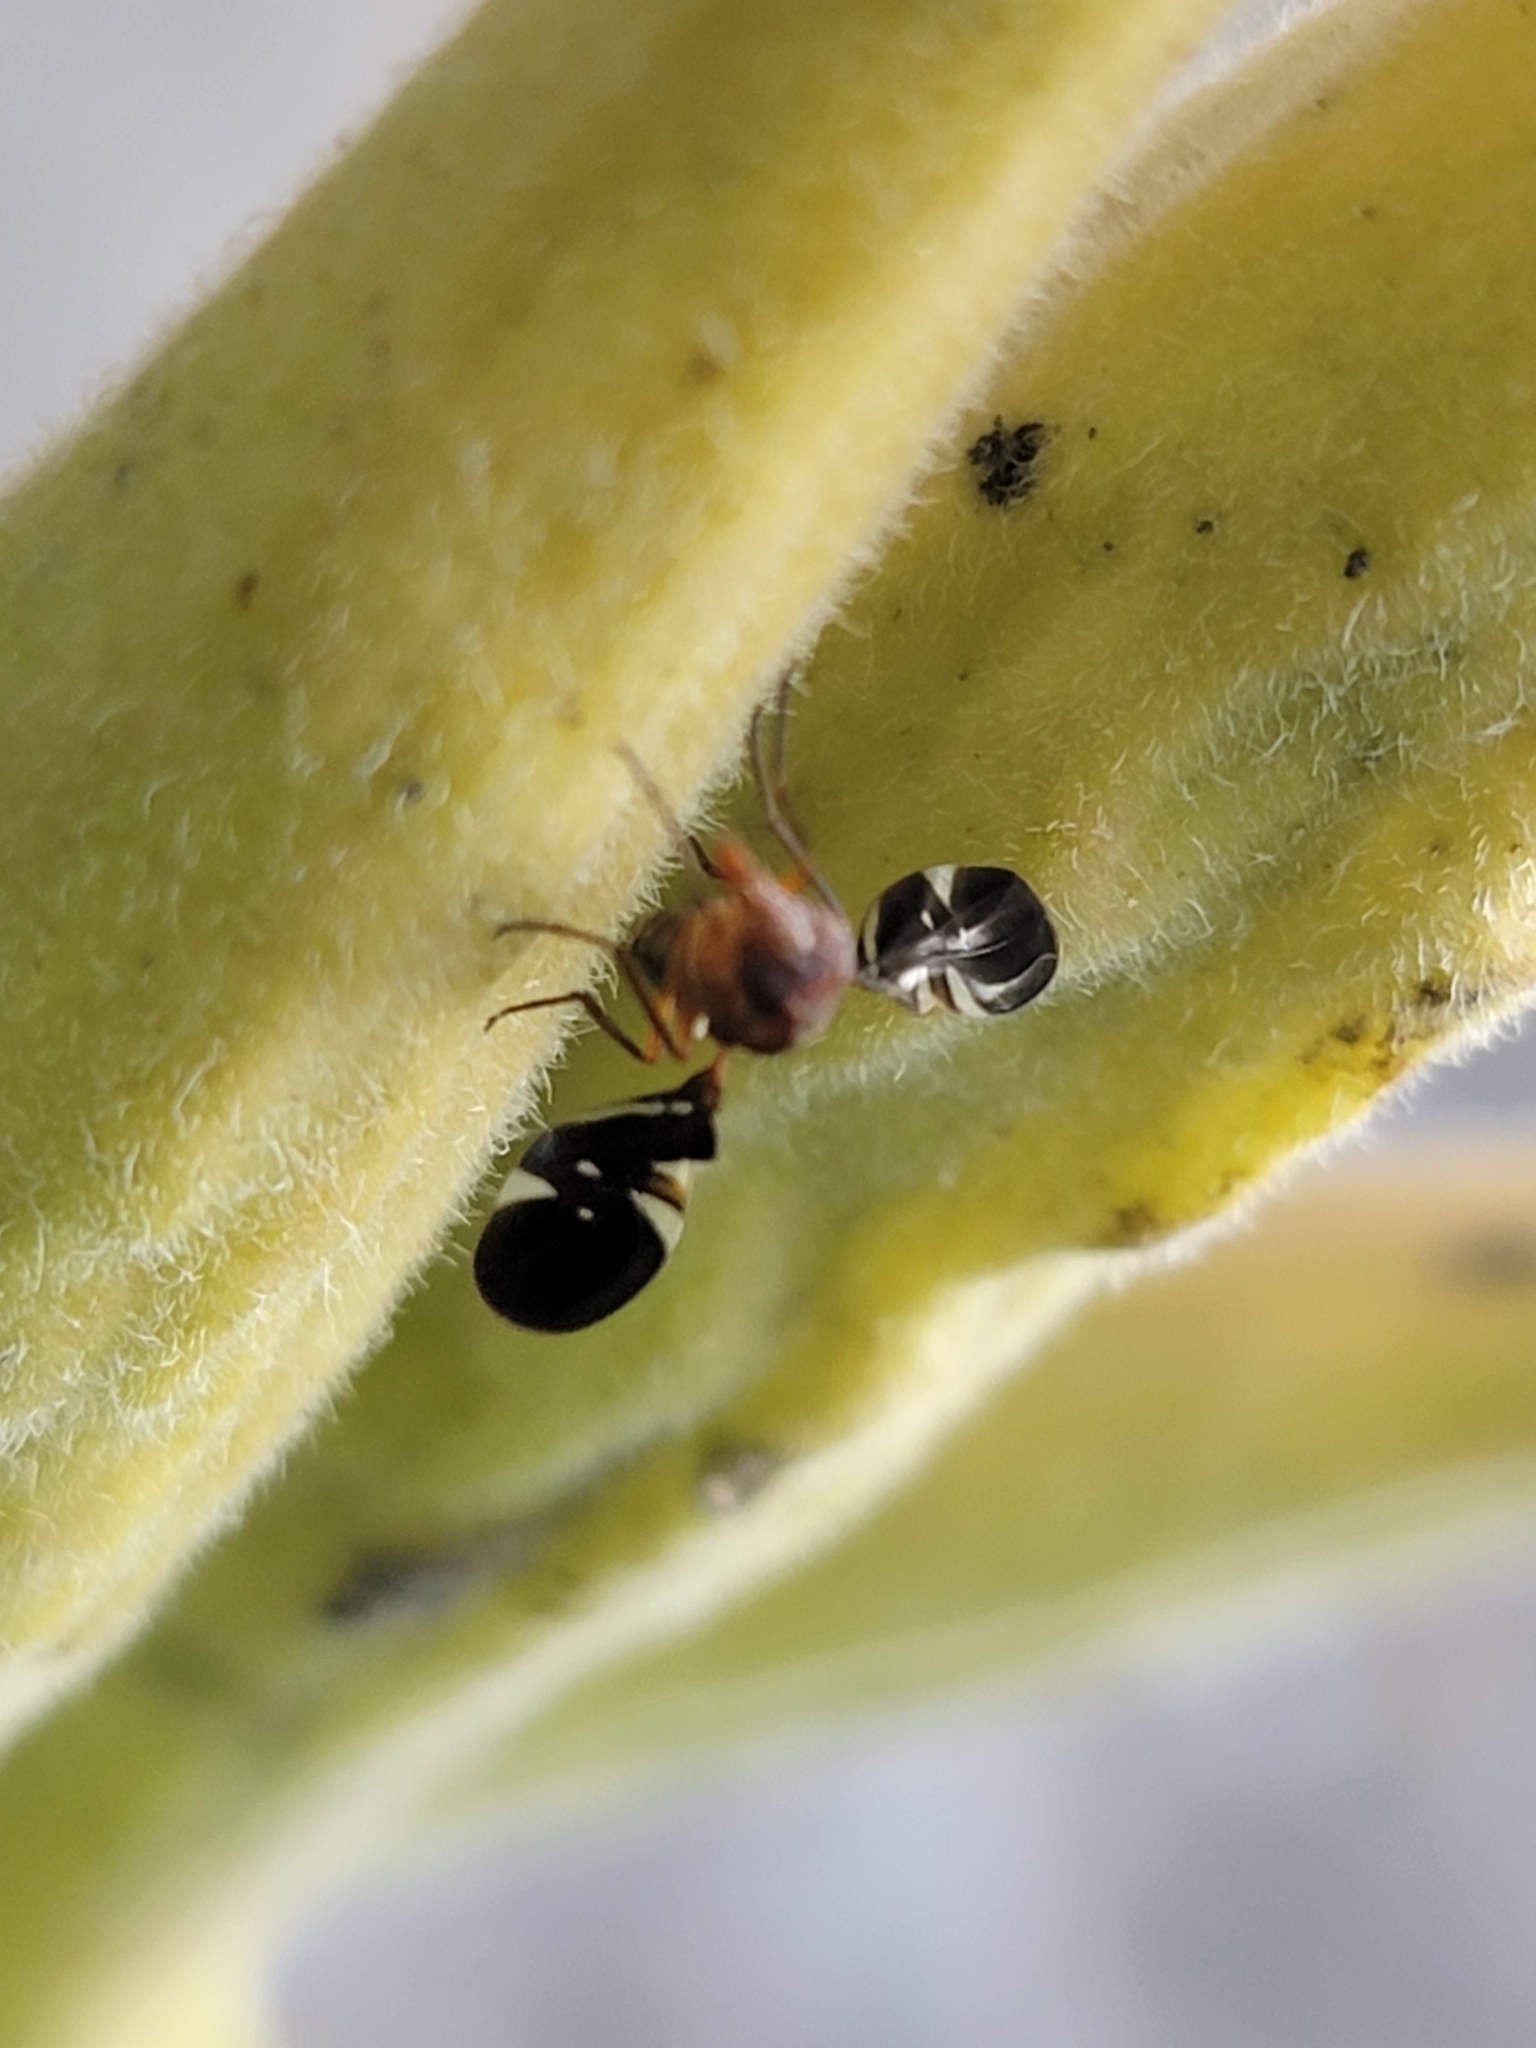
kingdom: Animalia
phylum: Arthropoda
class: Insecta
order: Diptera
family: Ulidiidae
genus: Delphinia
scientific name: Delphinia picta
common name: Common picture-winged fly
